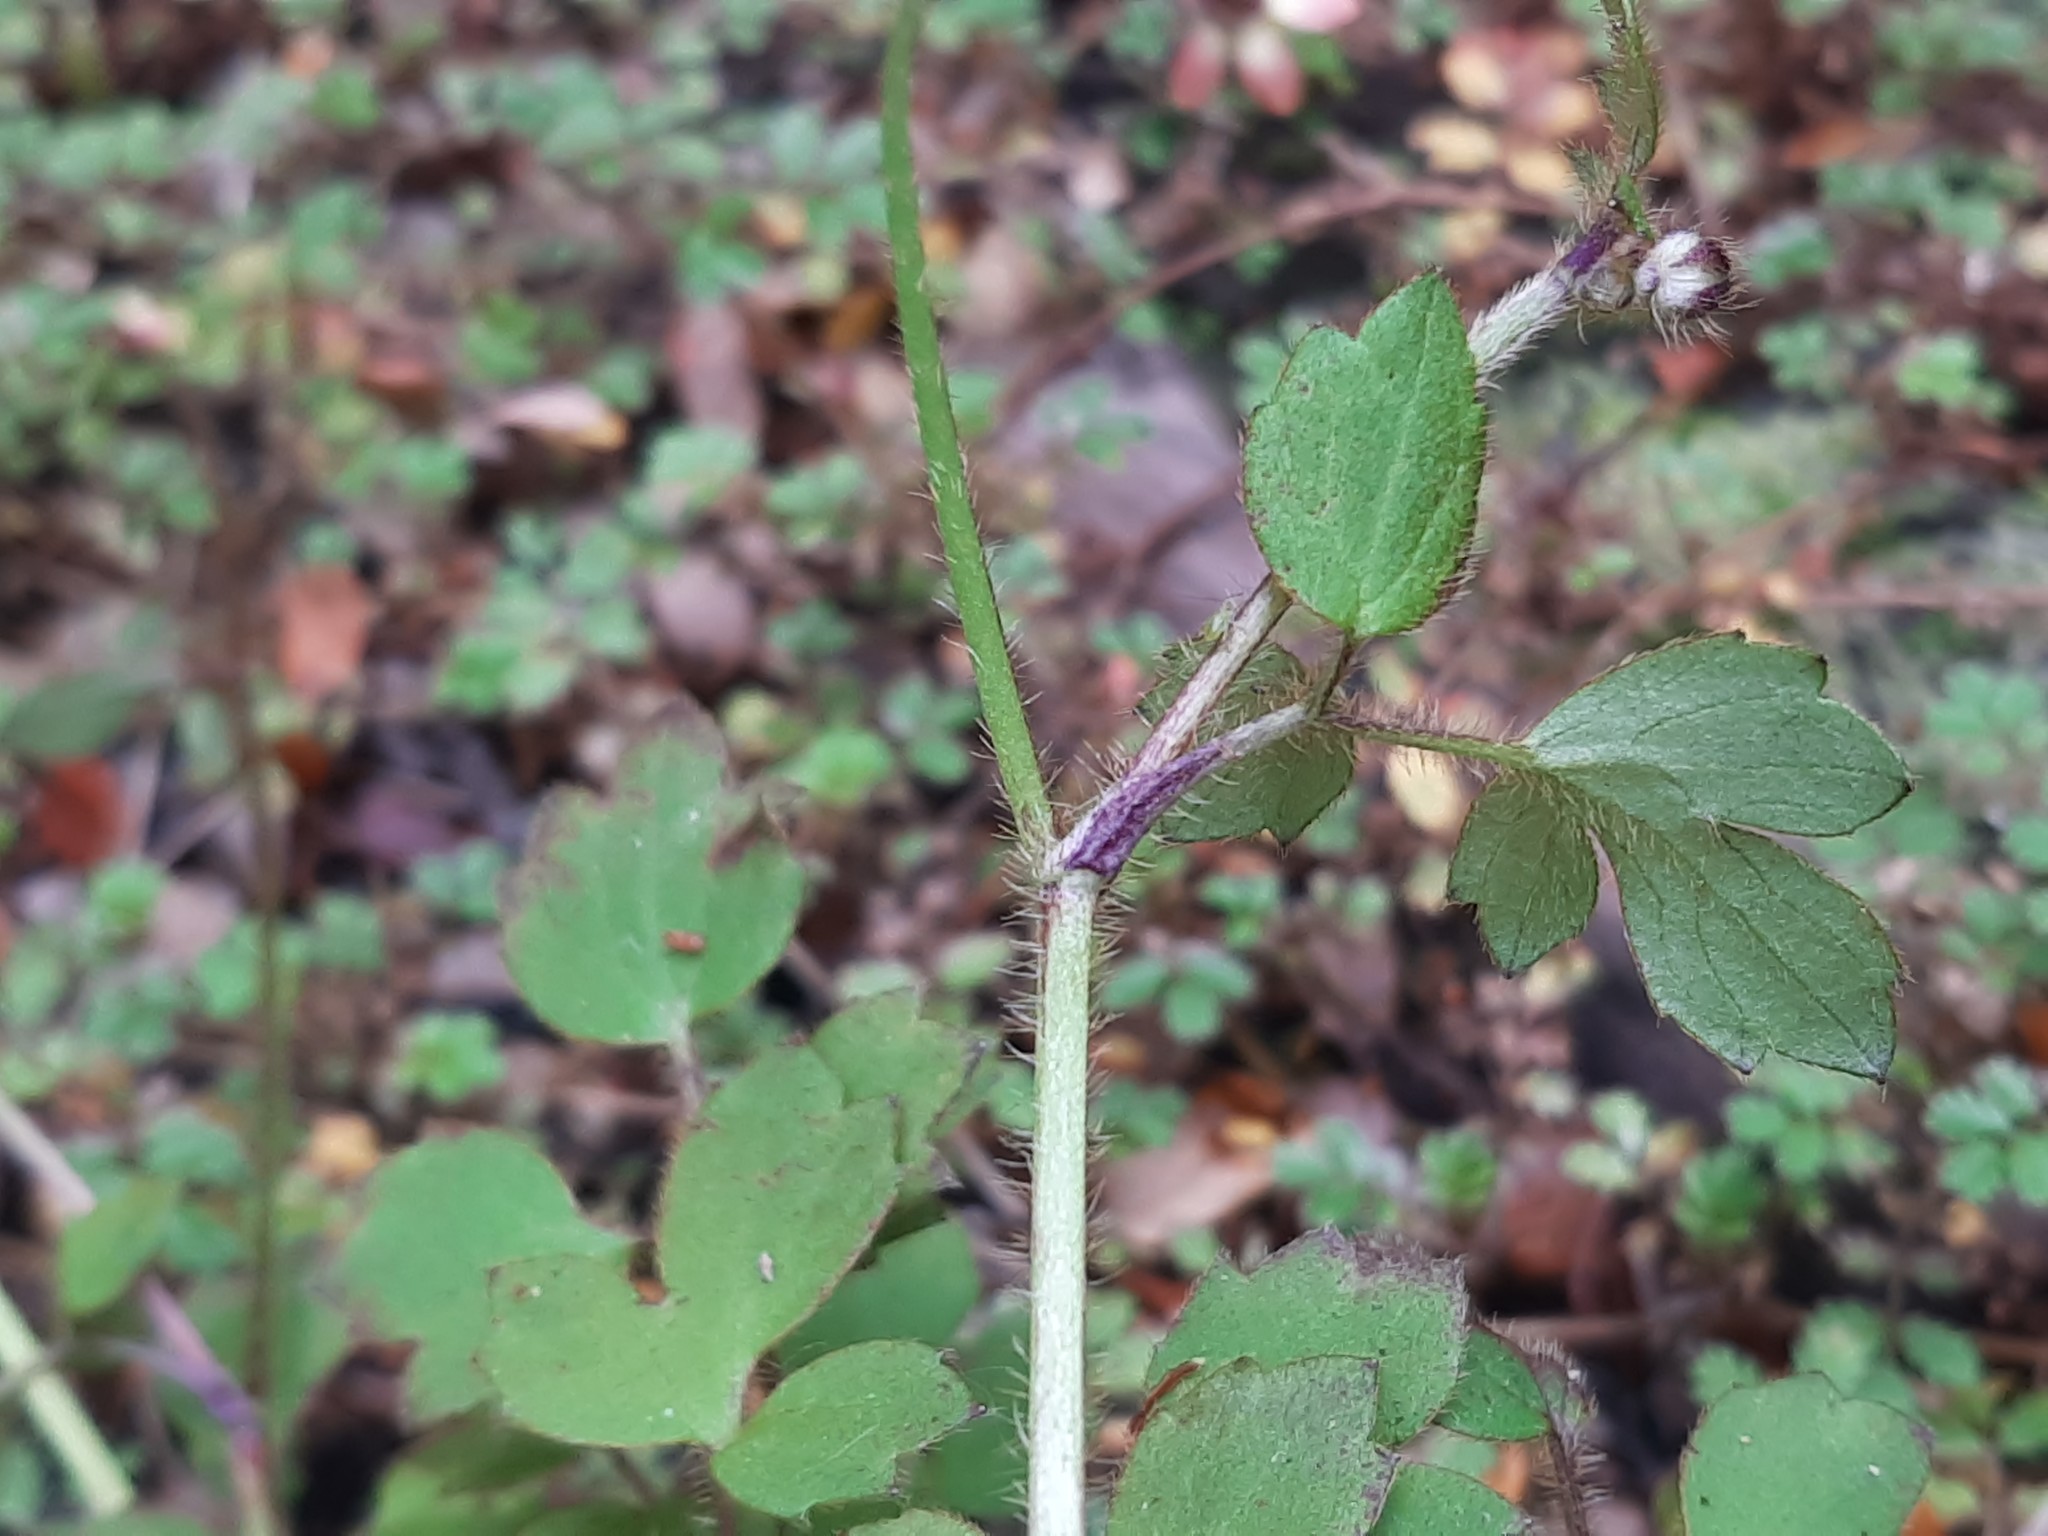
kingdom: Plantae
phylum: Tracheophyta
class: Magnoliopsida
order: Ranunculales
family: Ranunculaceae
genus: Ranunculus
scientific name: Ranunculus reflexus
